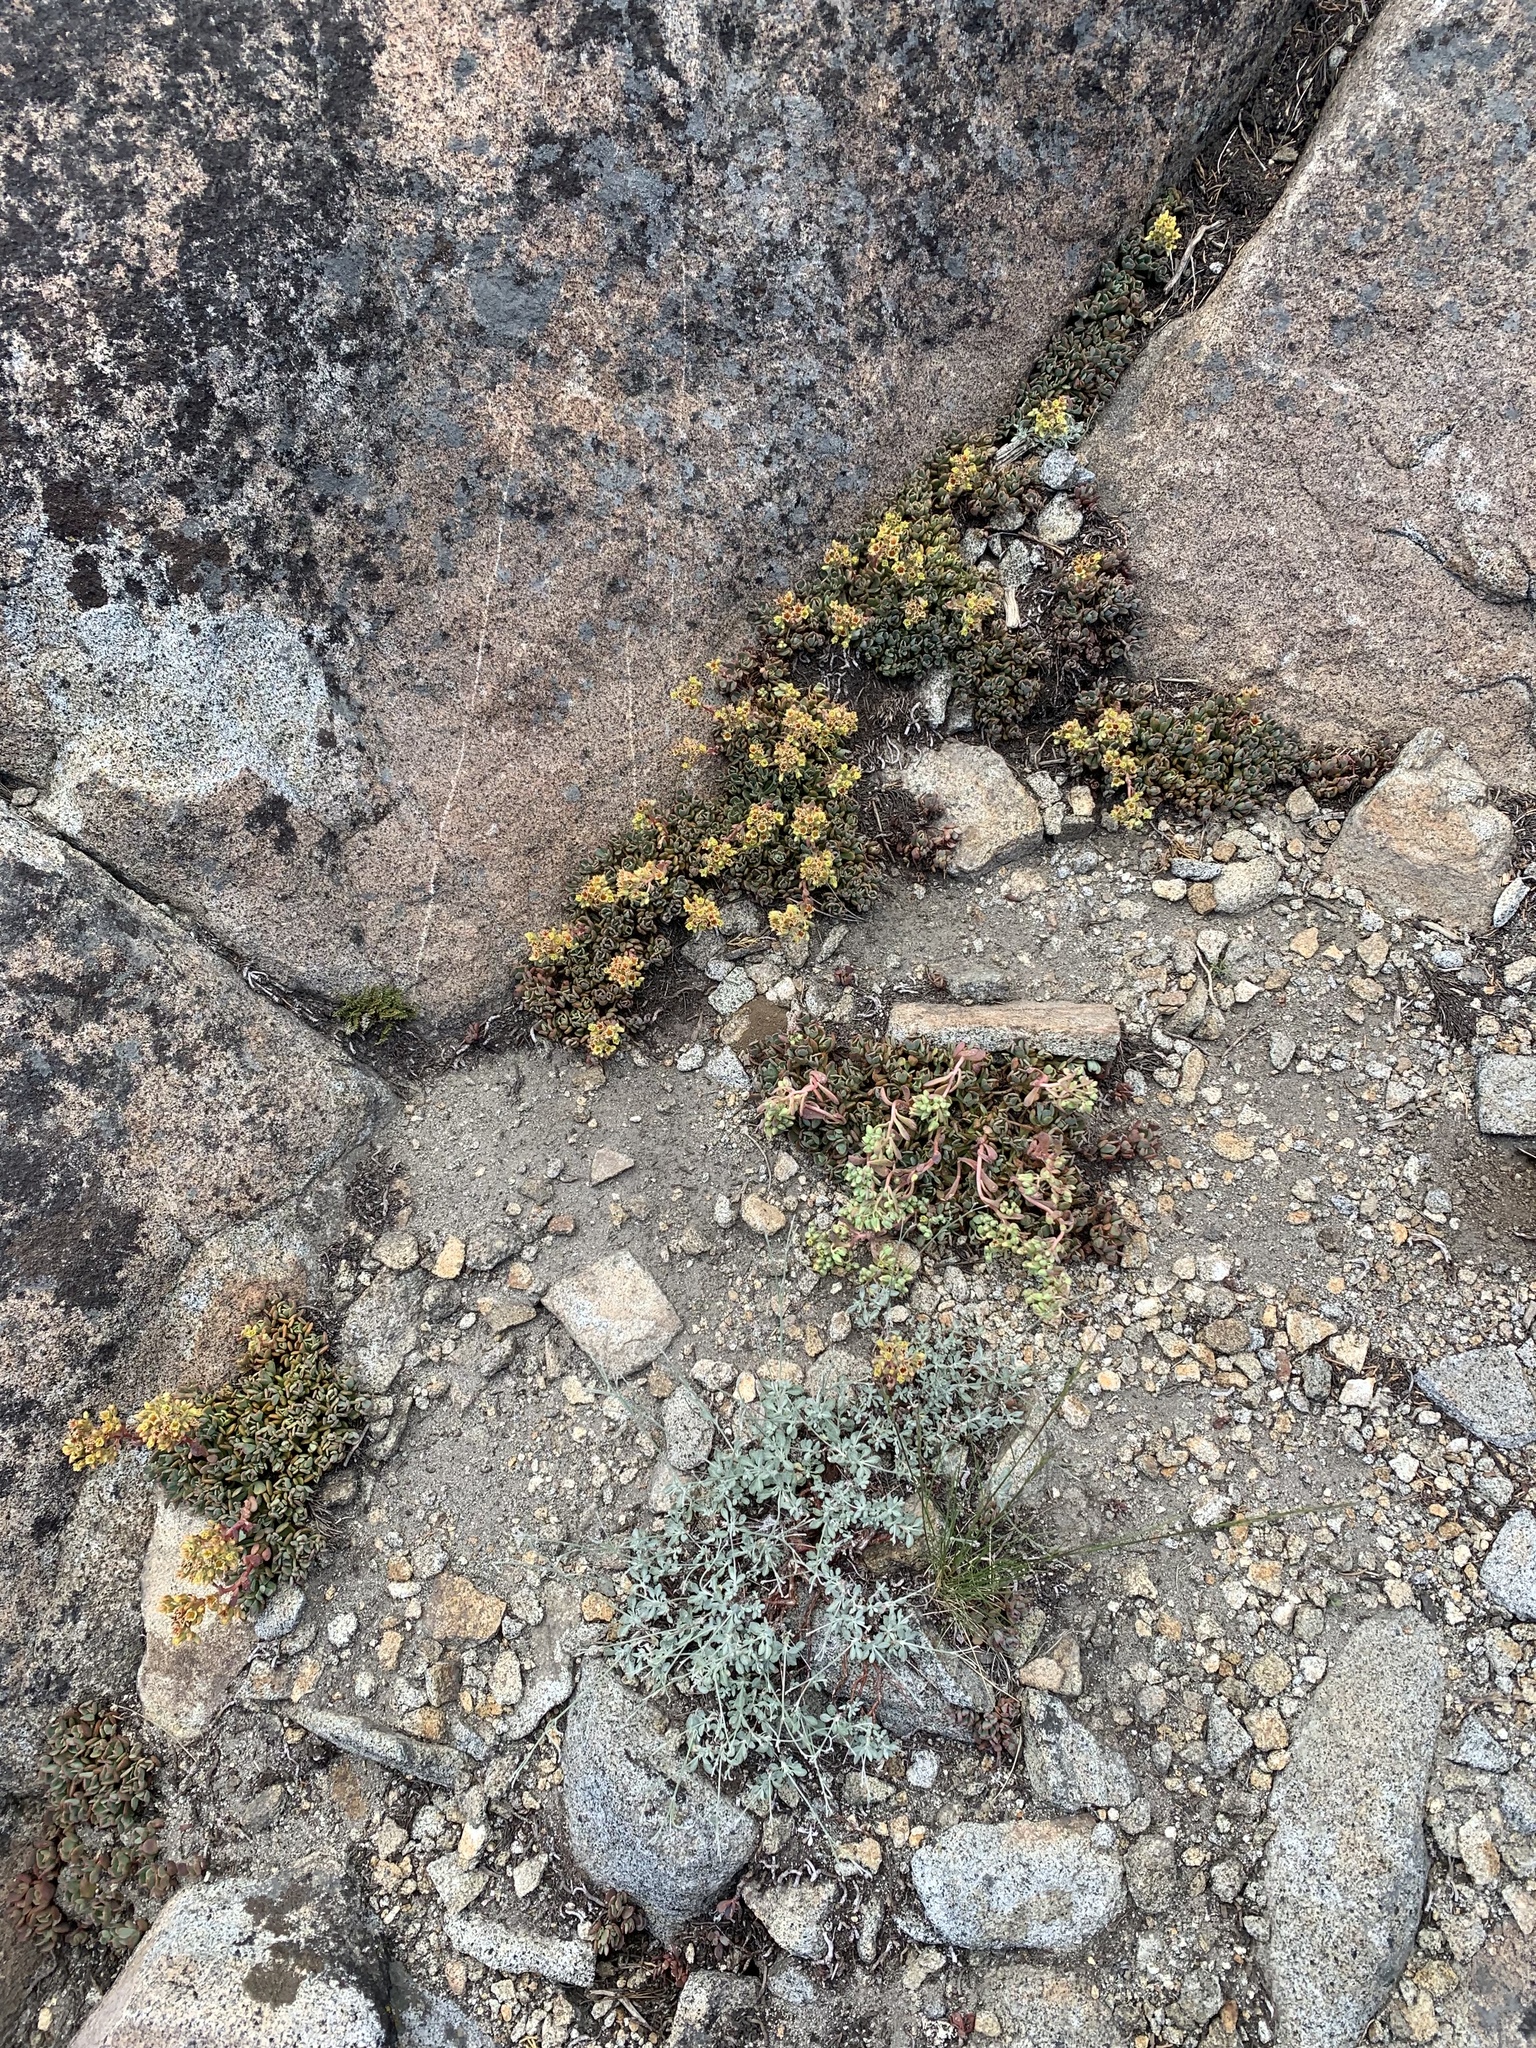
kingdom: Plantae
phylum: Tracheophyta
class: Magnoliopsida
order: Saxifragales
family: Crassulaceae
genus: Sedum
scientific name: Sedum obtusatum
